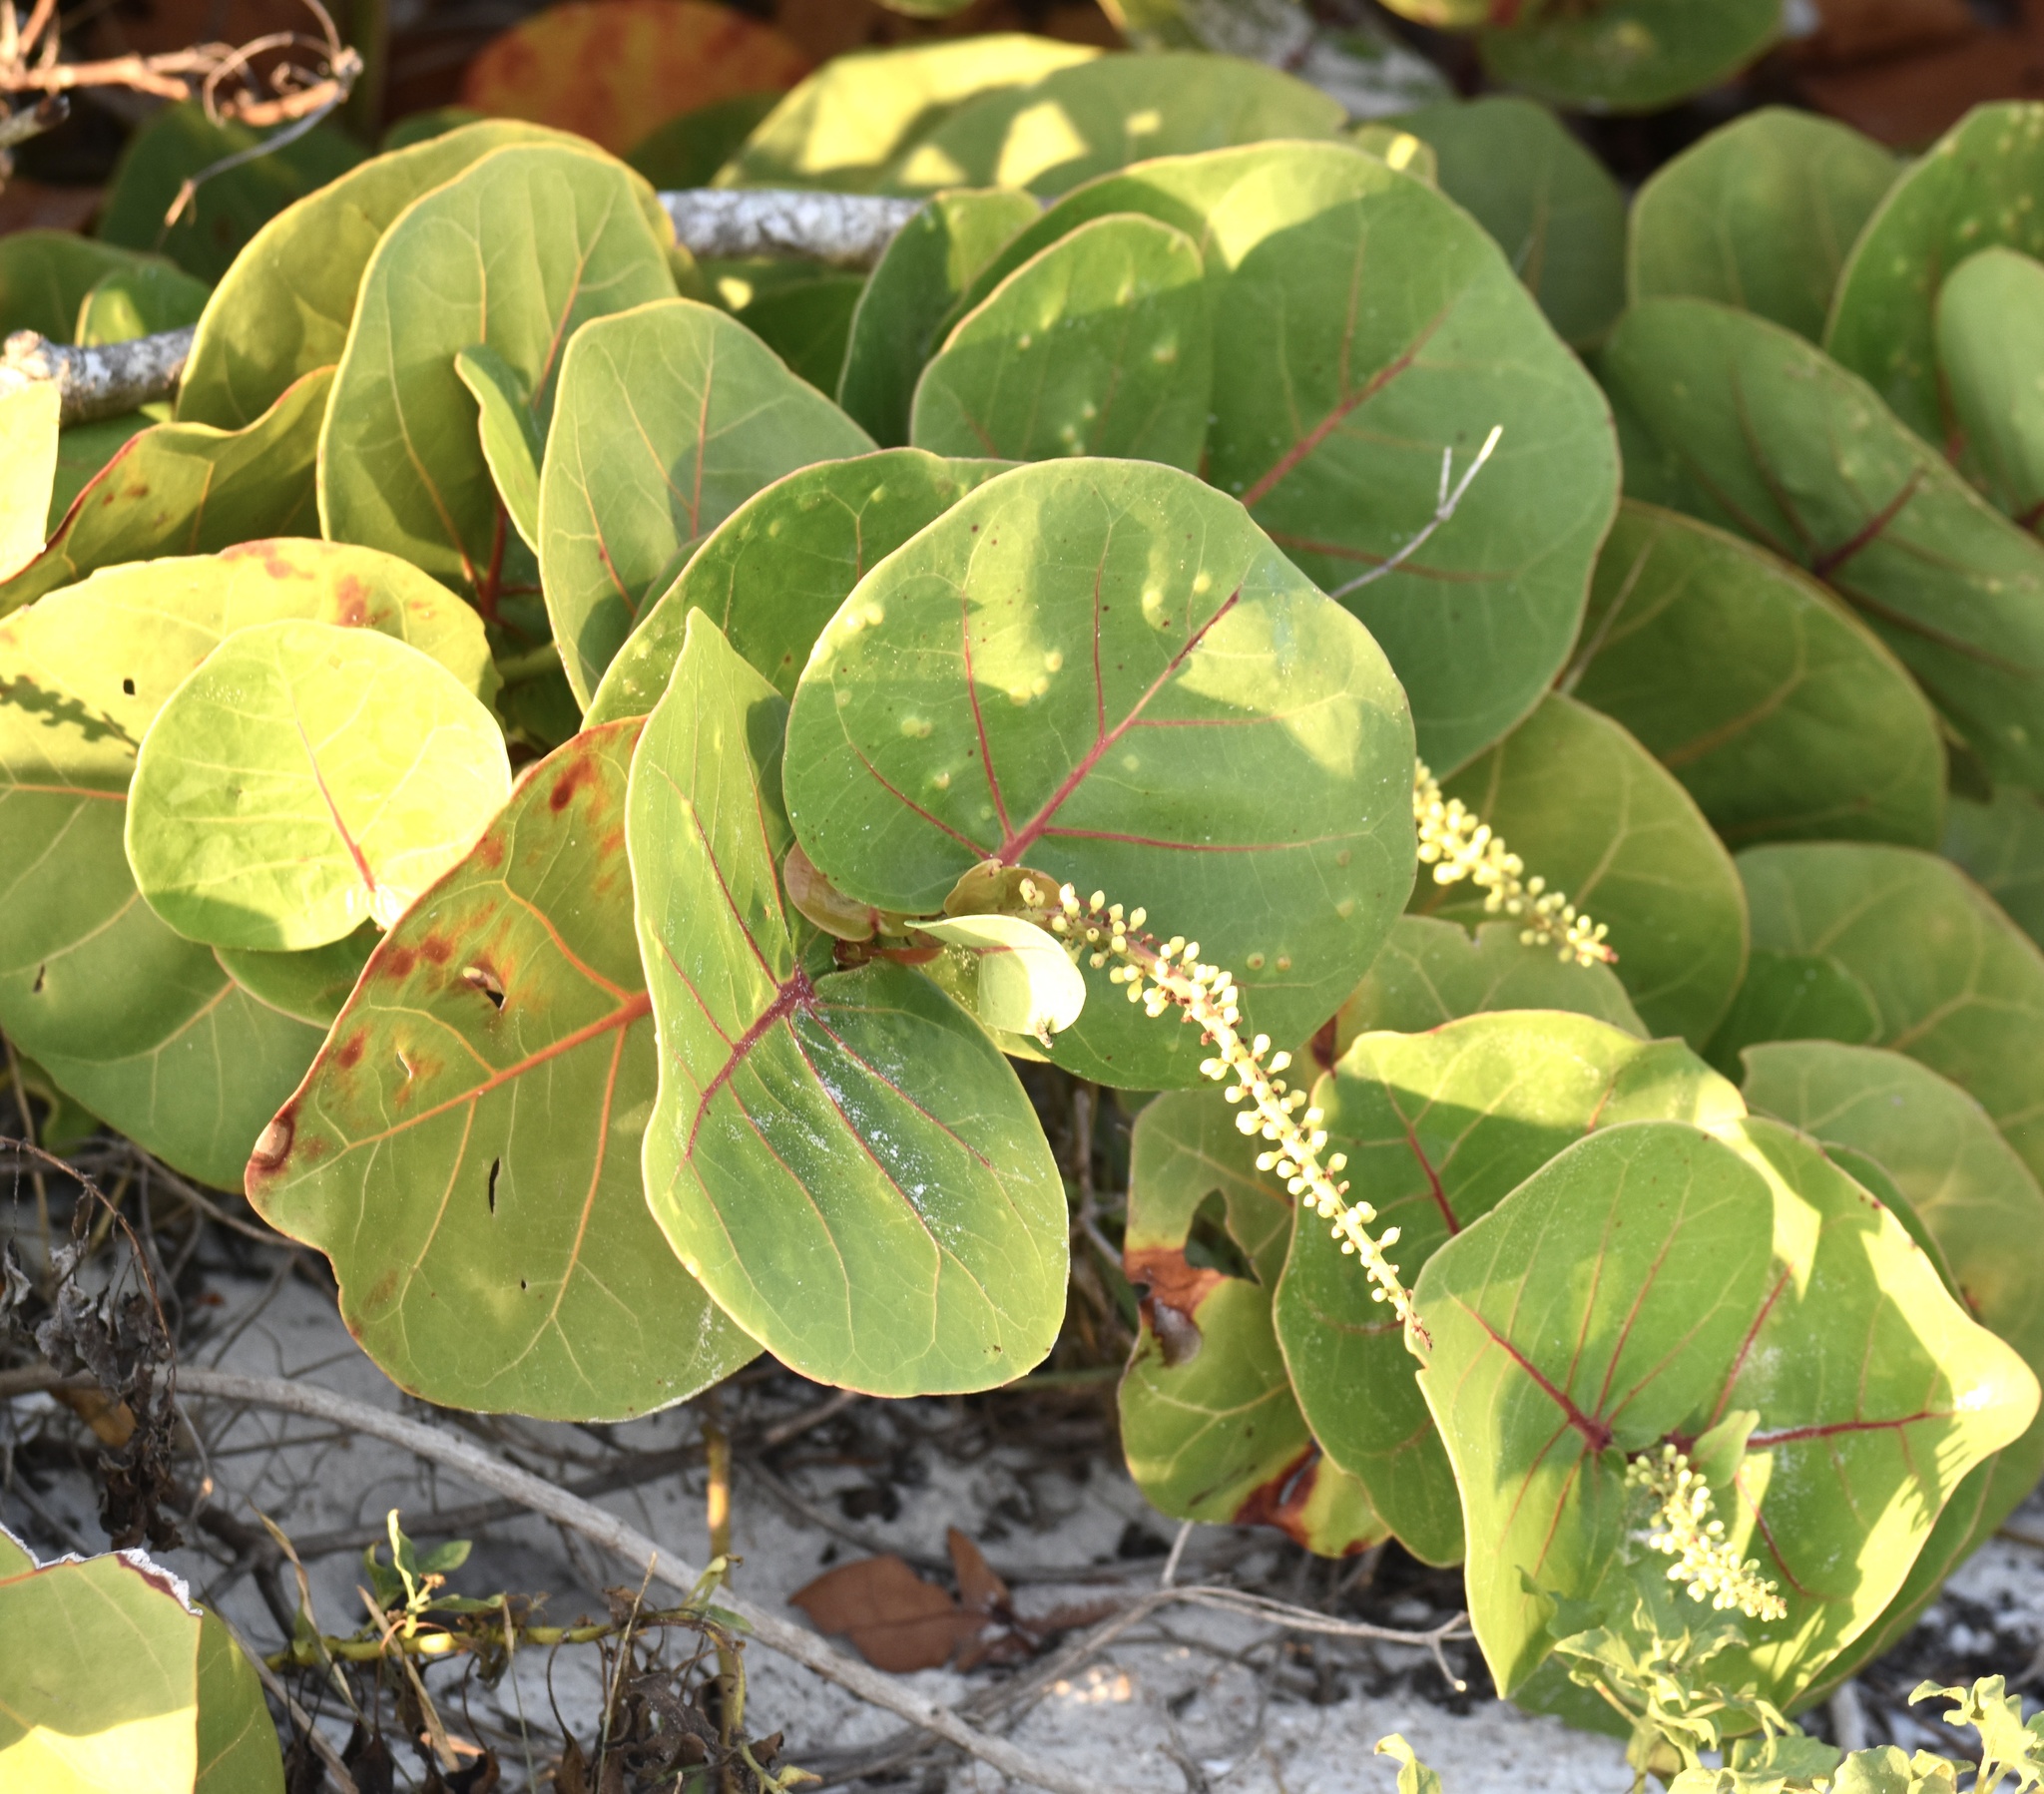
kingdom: Plantae
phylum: Tracheophyta
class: Magnoliopsida
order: Caryophyllales
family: Polygonaceae
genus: Coccoloba
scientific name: Coccoloba uvifera
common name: Seagrape
